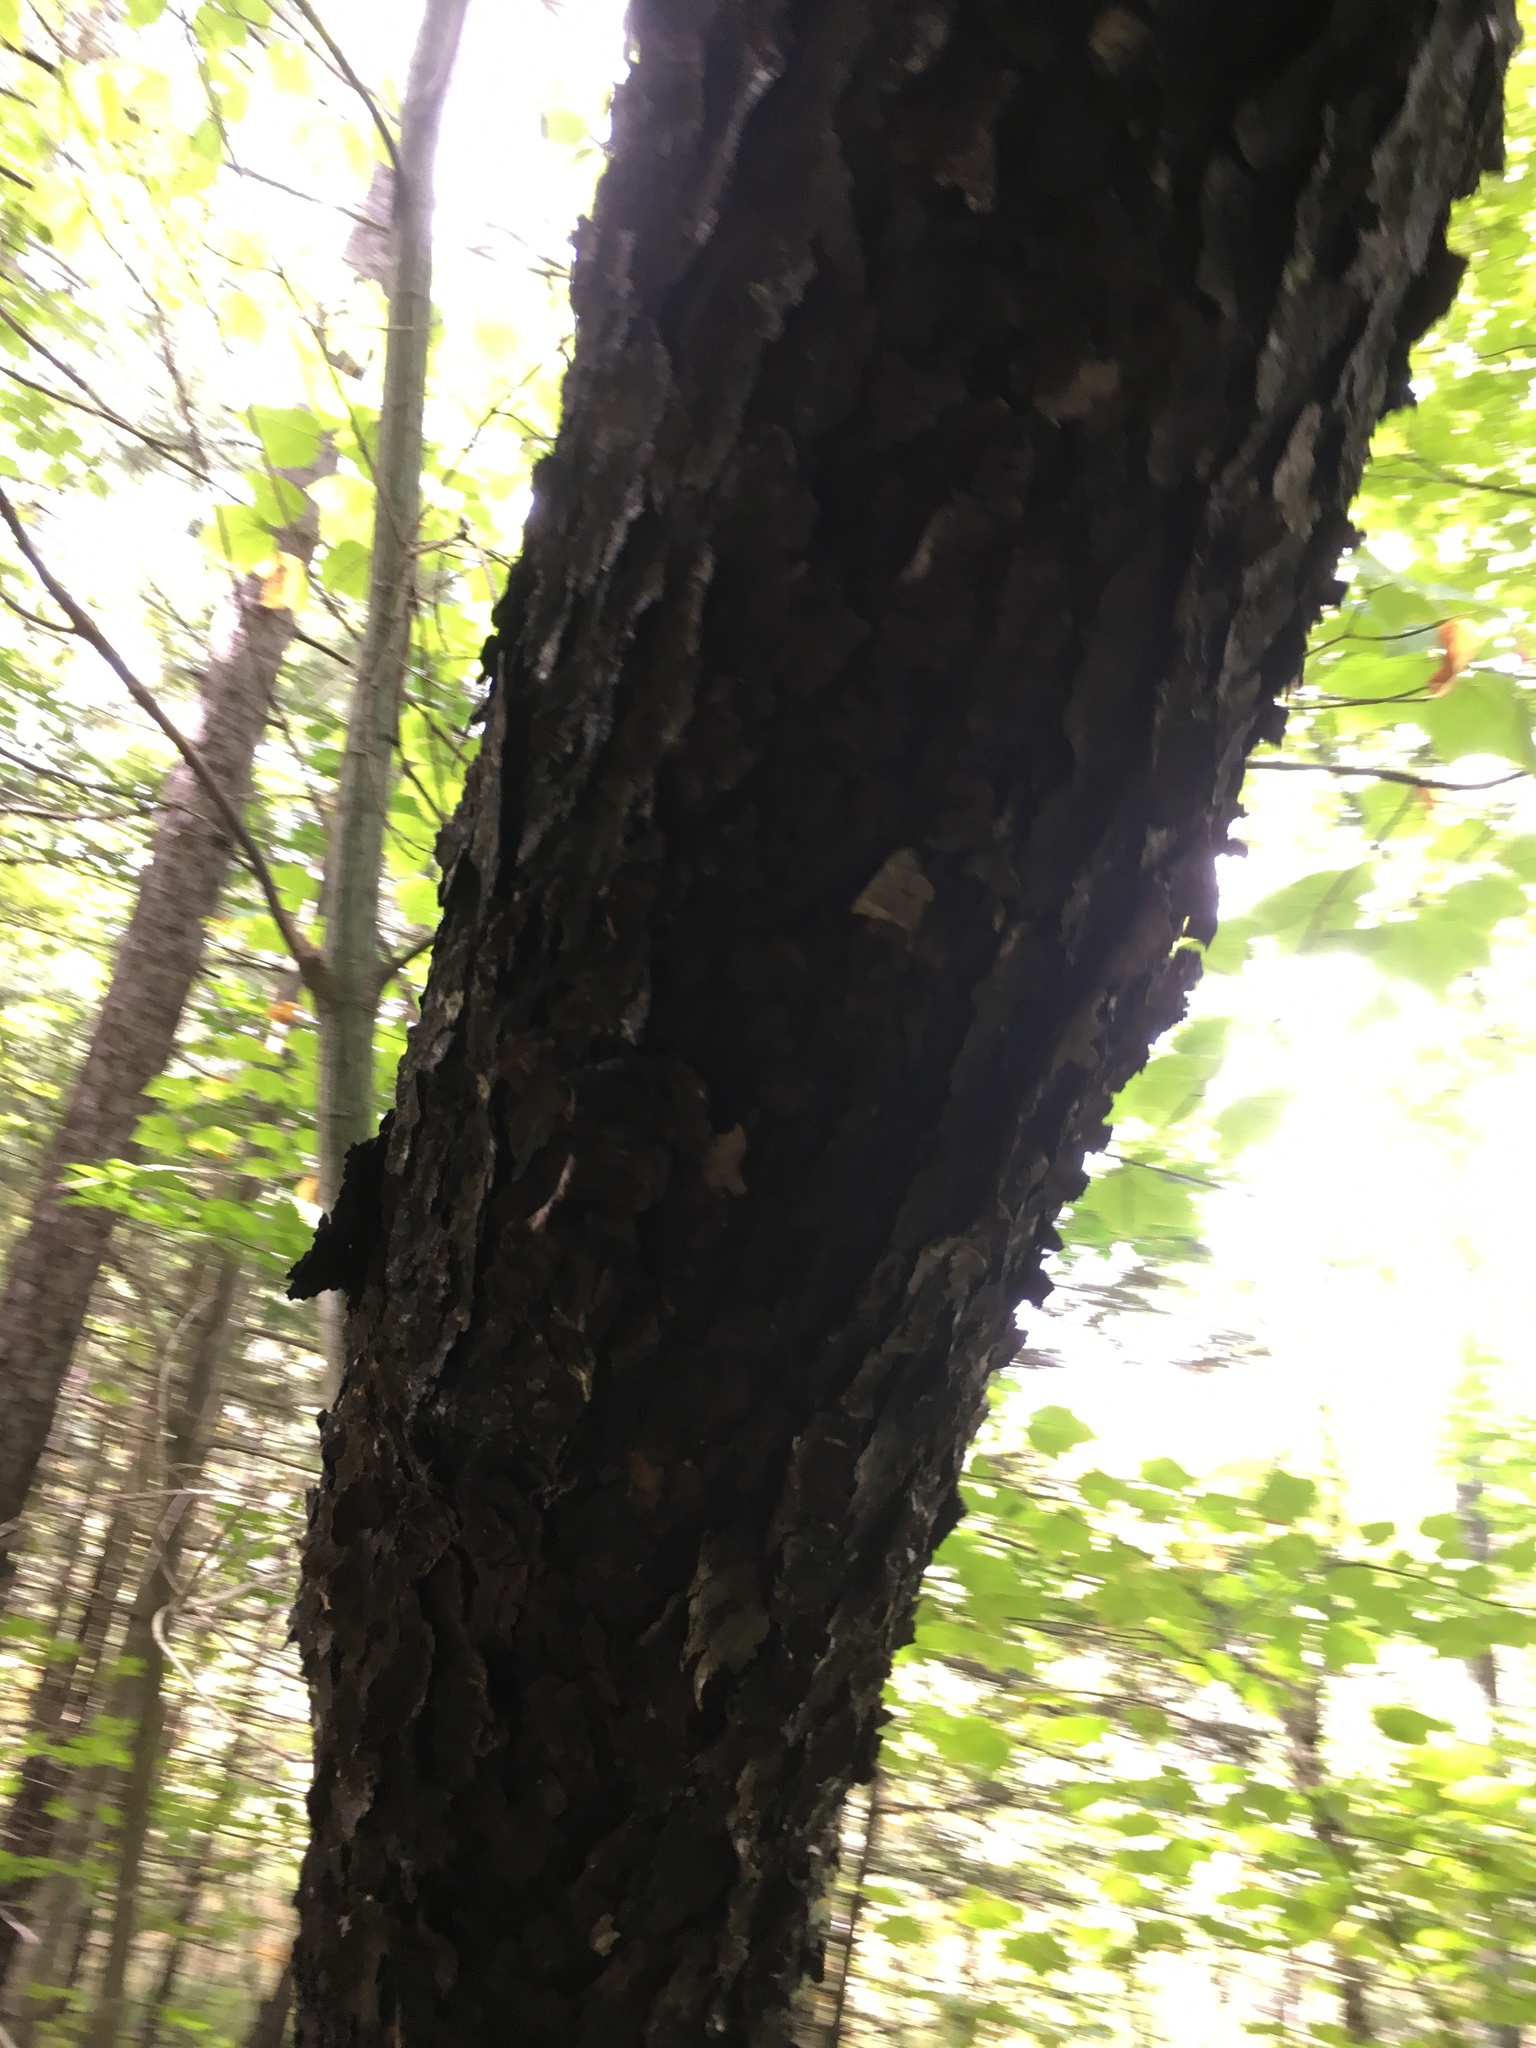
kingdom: Plantae
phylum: Tracheophyta
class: Magnoliopsida
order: Rosales
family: Rosaceae
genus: Prunus
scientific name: Prunus serotina
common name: Black cherry
